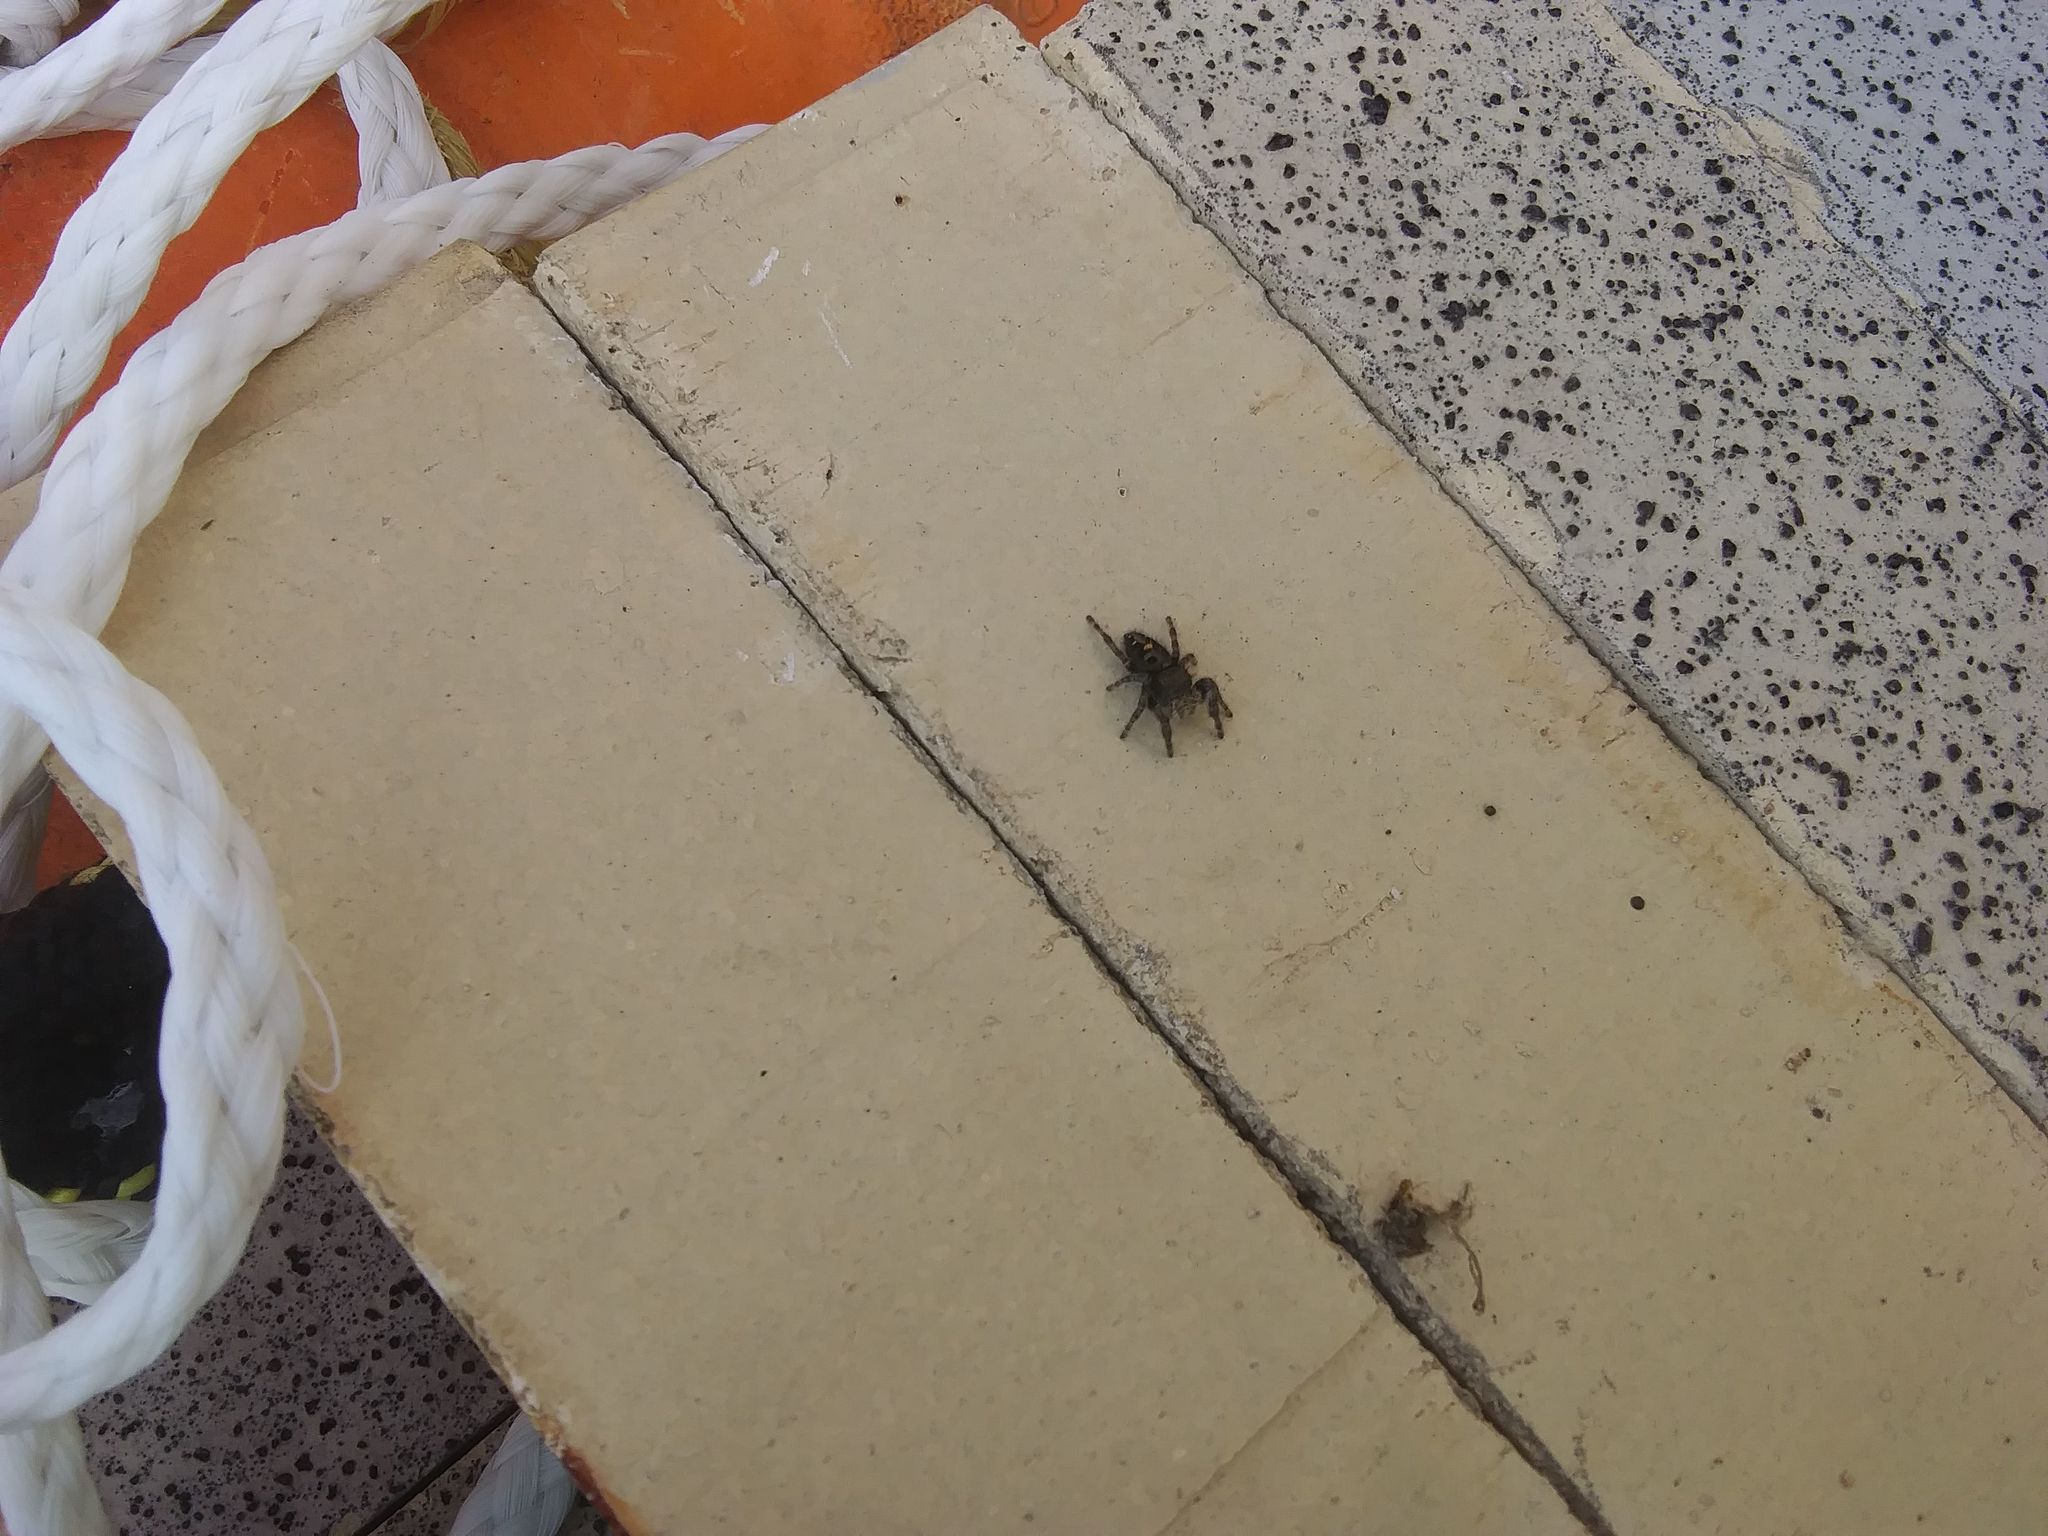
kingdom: Animalia
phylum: Arthropoda
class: Arachnida
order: Araneae
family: Salticidae
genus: Phidippus
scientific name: Phidippus audax
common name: Bold jumper
